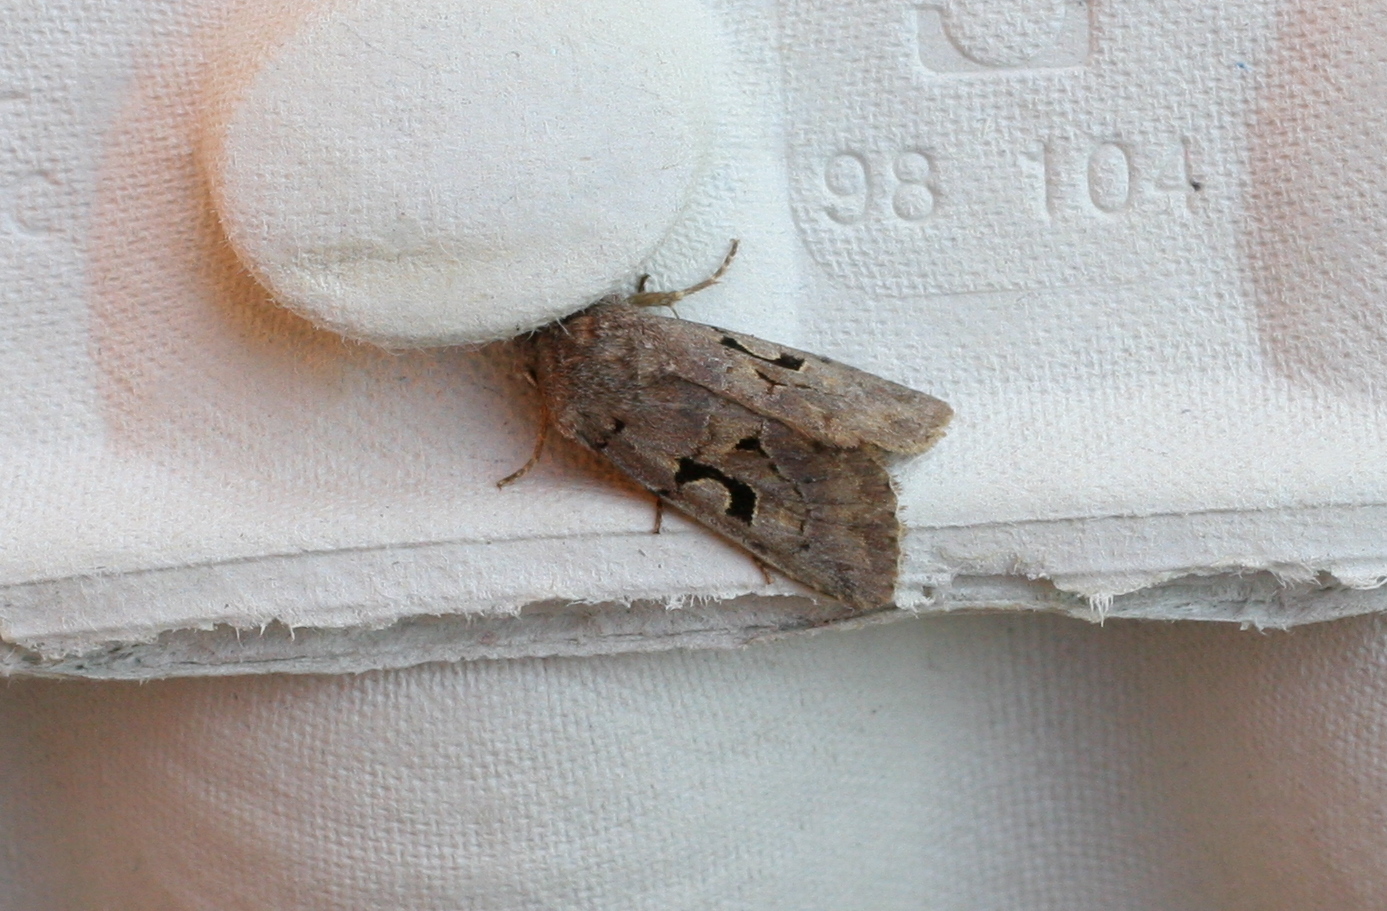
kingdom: Animalia
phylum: Arthropoda
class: Insecta
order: Lepidoptera
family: Noctuidae
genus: Orthosia
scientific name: Orthosia gothica
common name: Hebrew character
